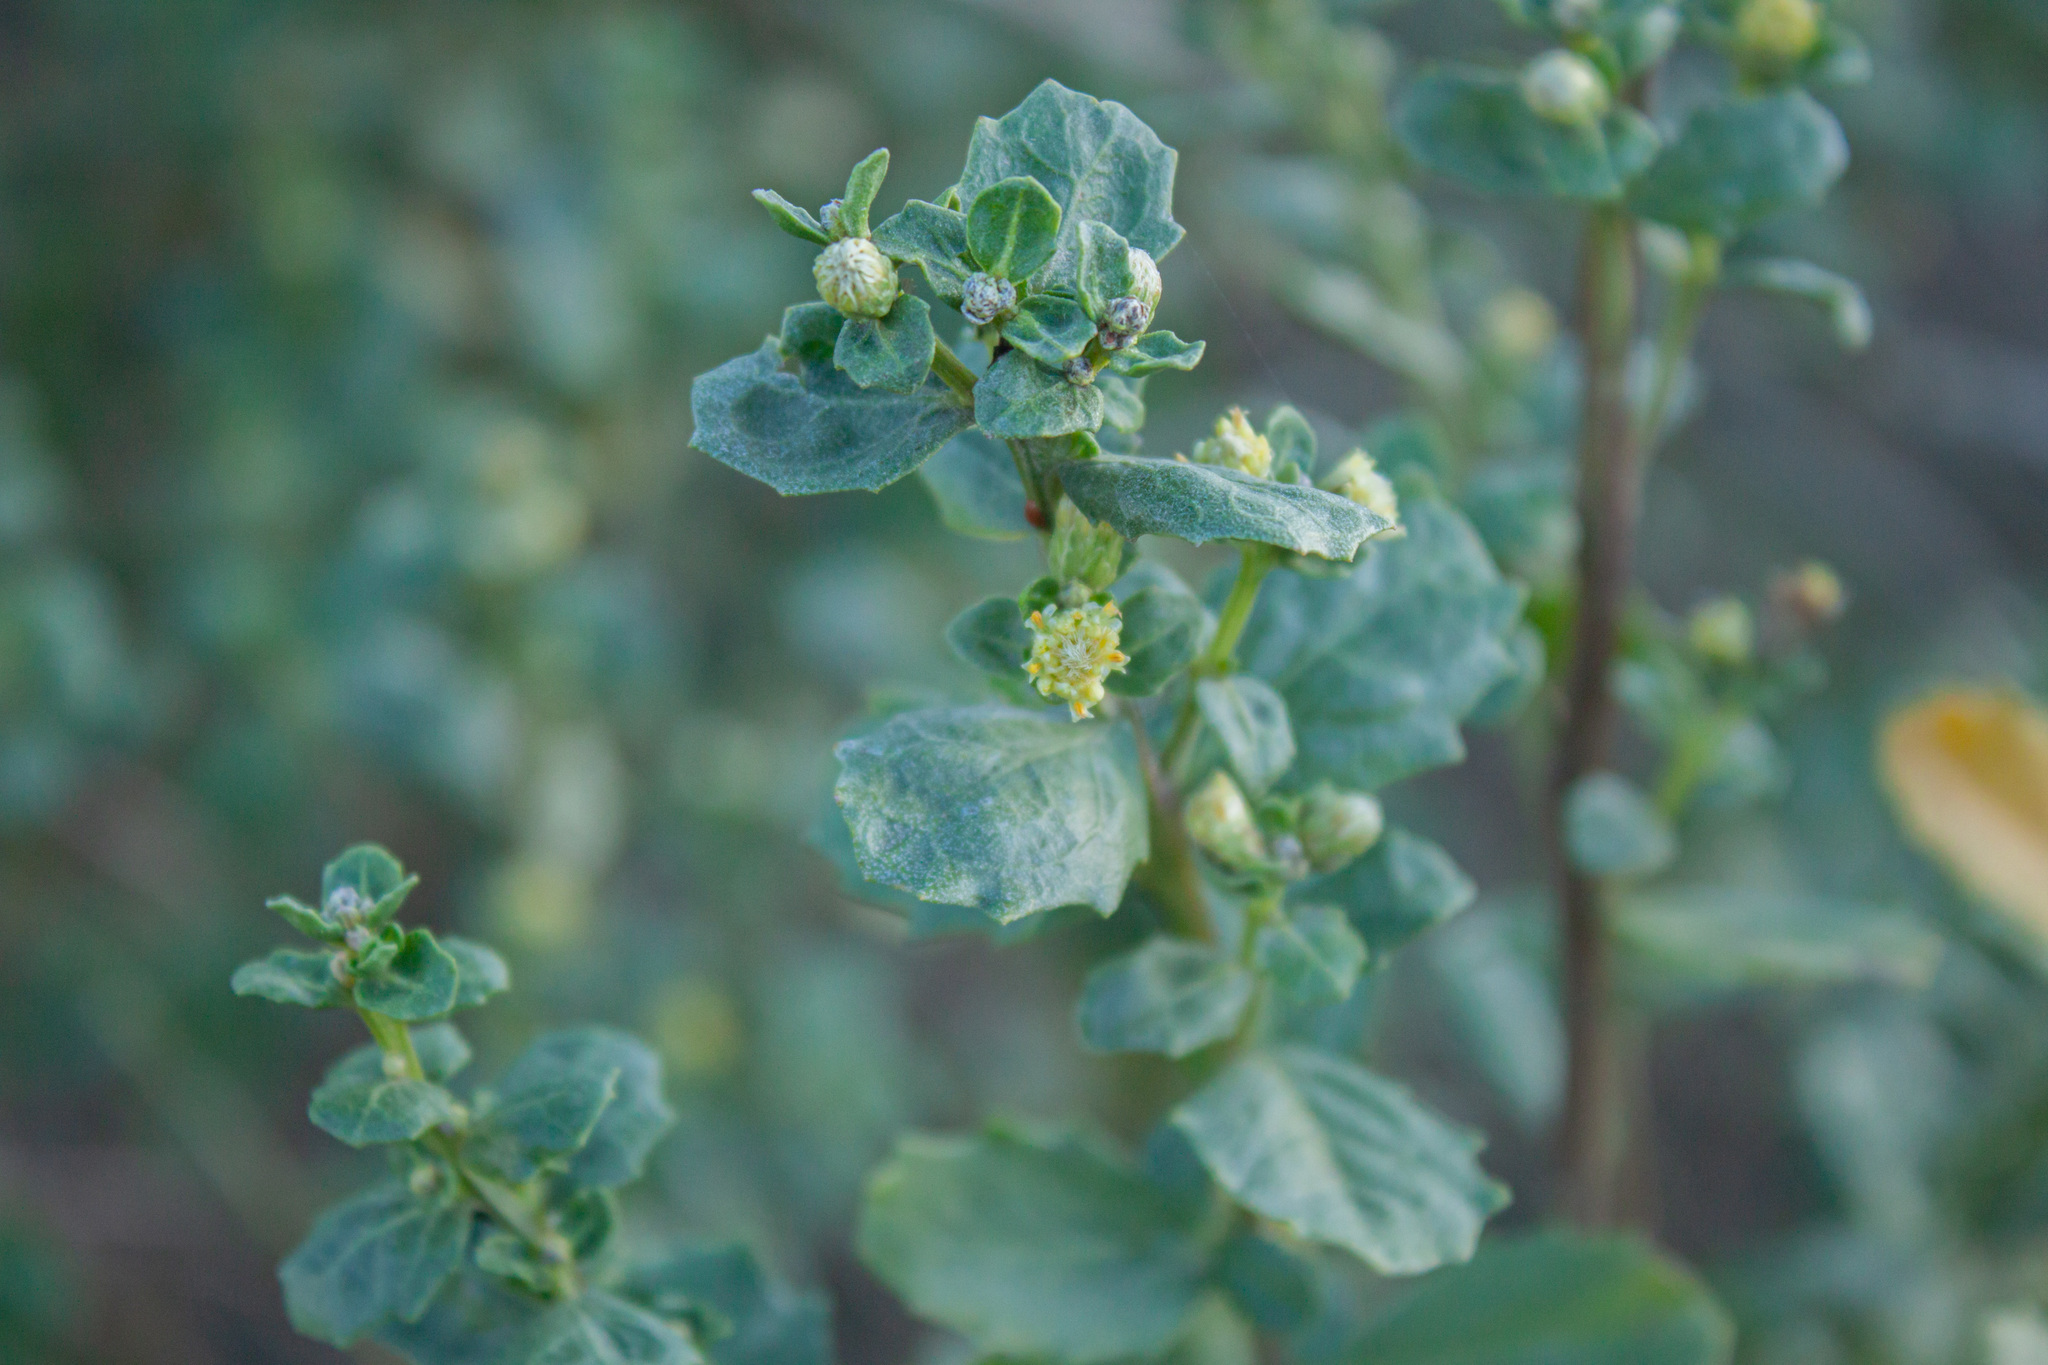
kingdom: Plantae
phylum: Tracheophyta
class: Magnoliopsida
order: Asterales
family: Asteraceae
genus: Baccharis
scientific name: Baccharis pilularis
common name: Coyotebrush
